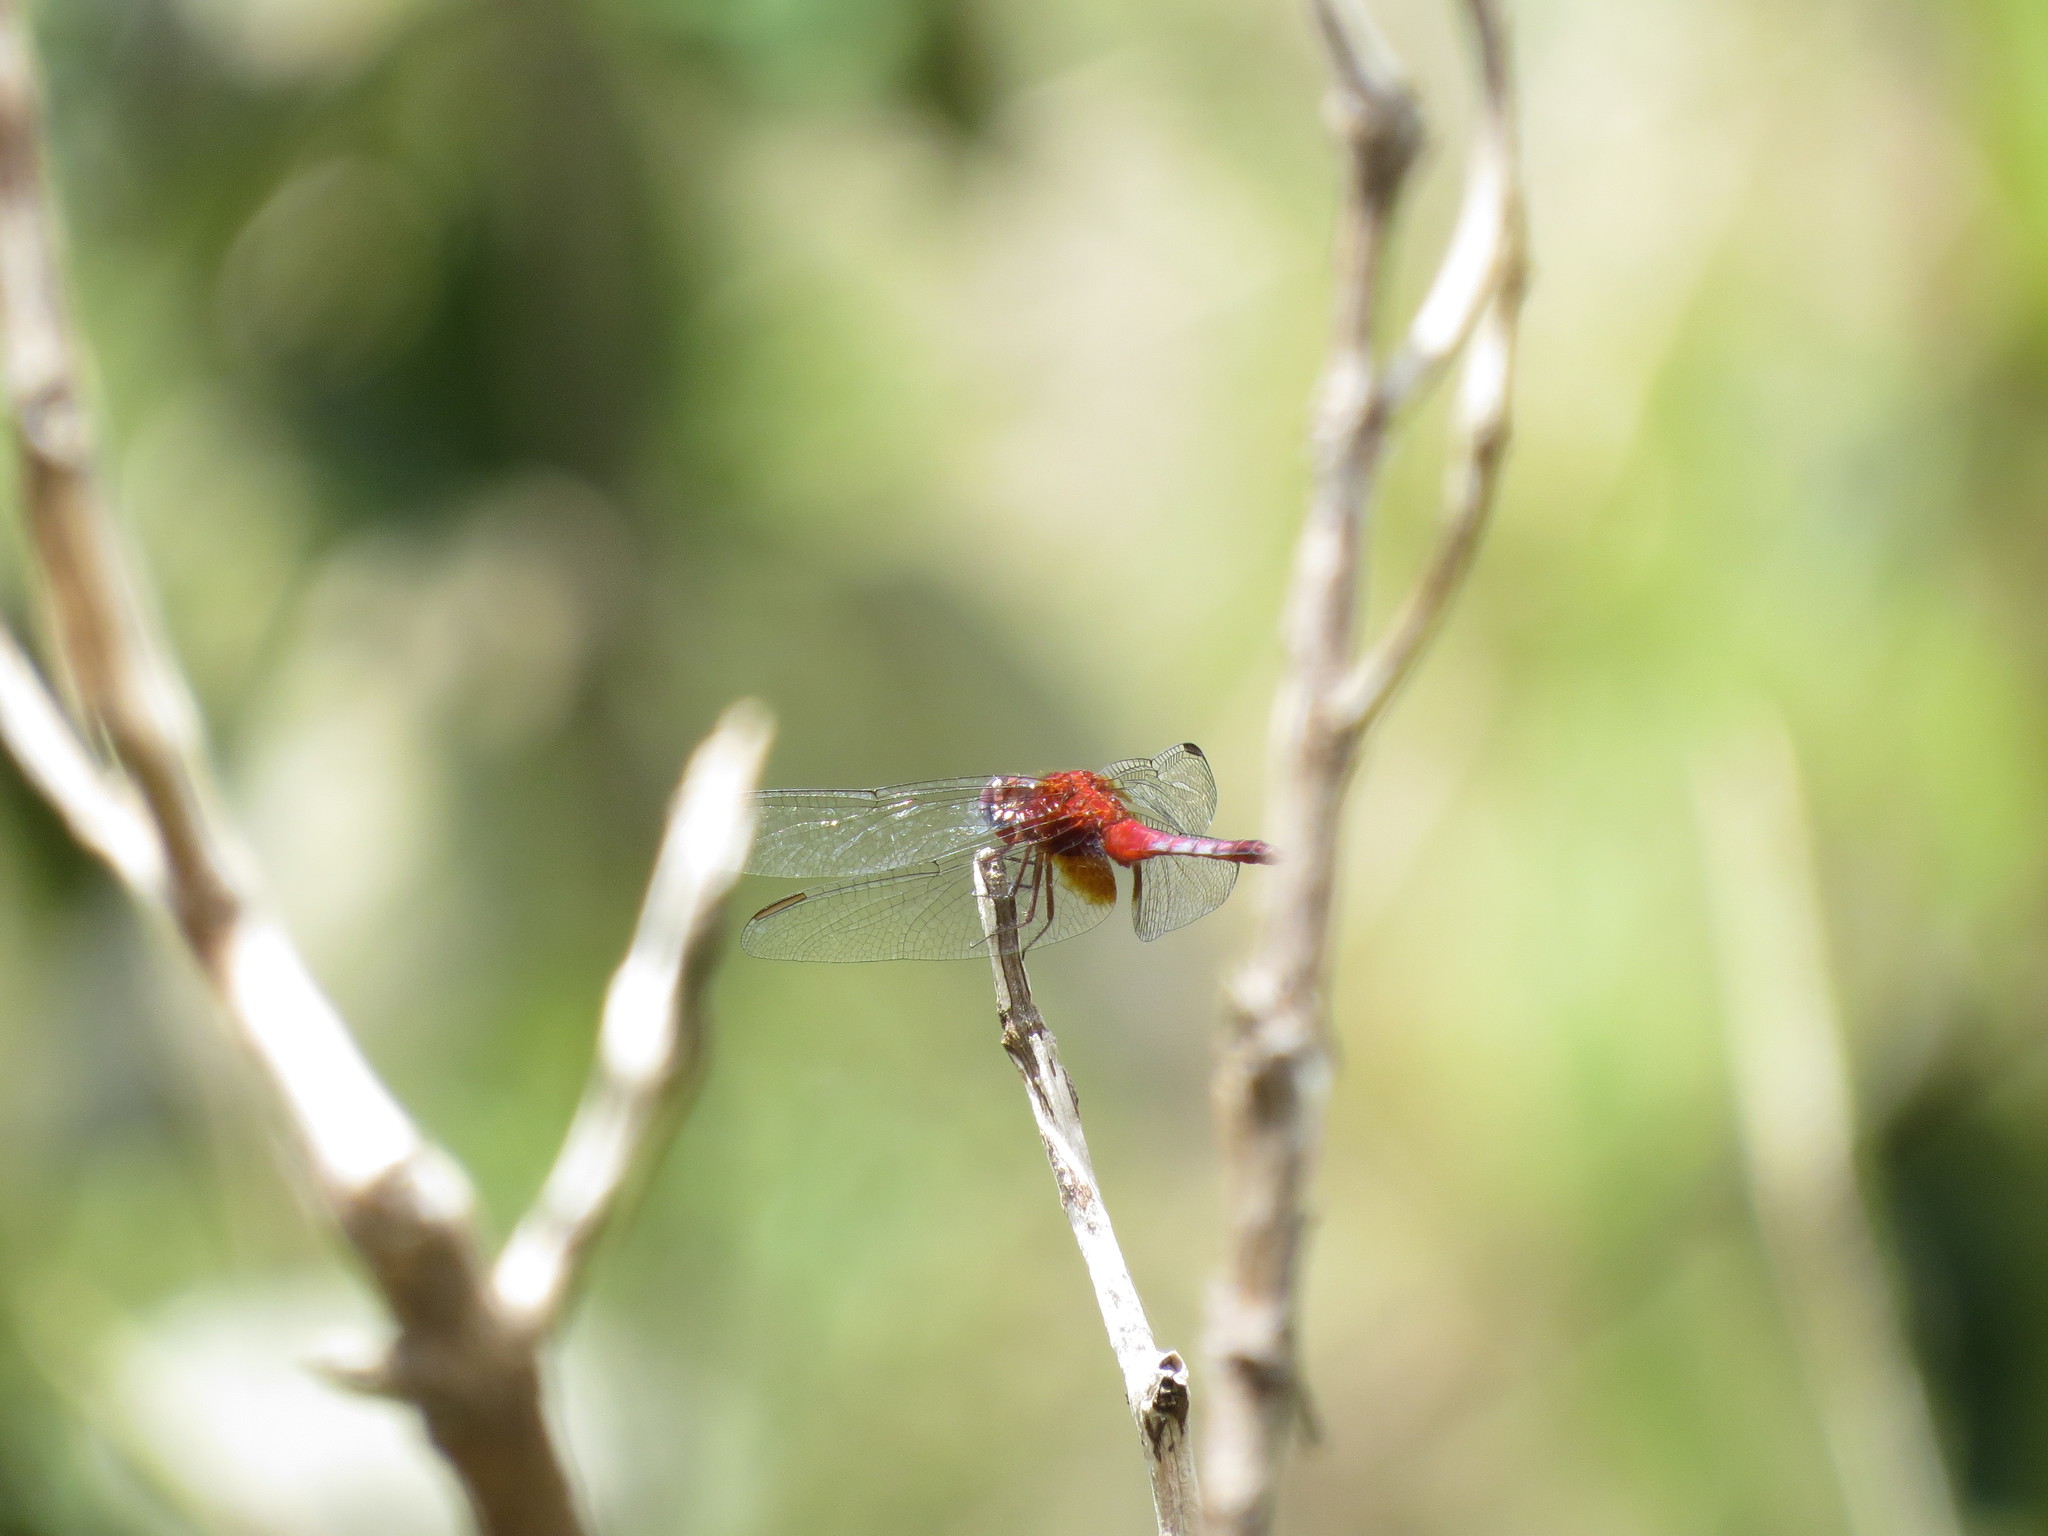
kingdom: Animalia
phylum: Arthropoda
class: Insecta
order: Odonata
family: Libellulidae
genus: Erythrodiplax
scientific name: Erythrodiplax fusca
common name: Red-faced dragonlet
